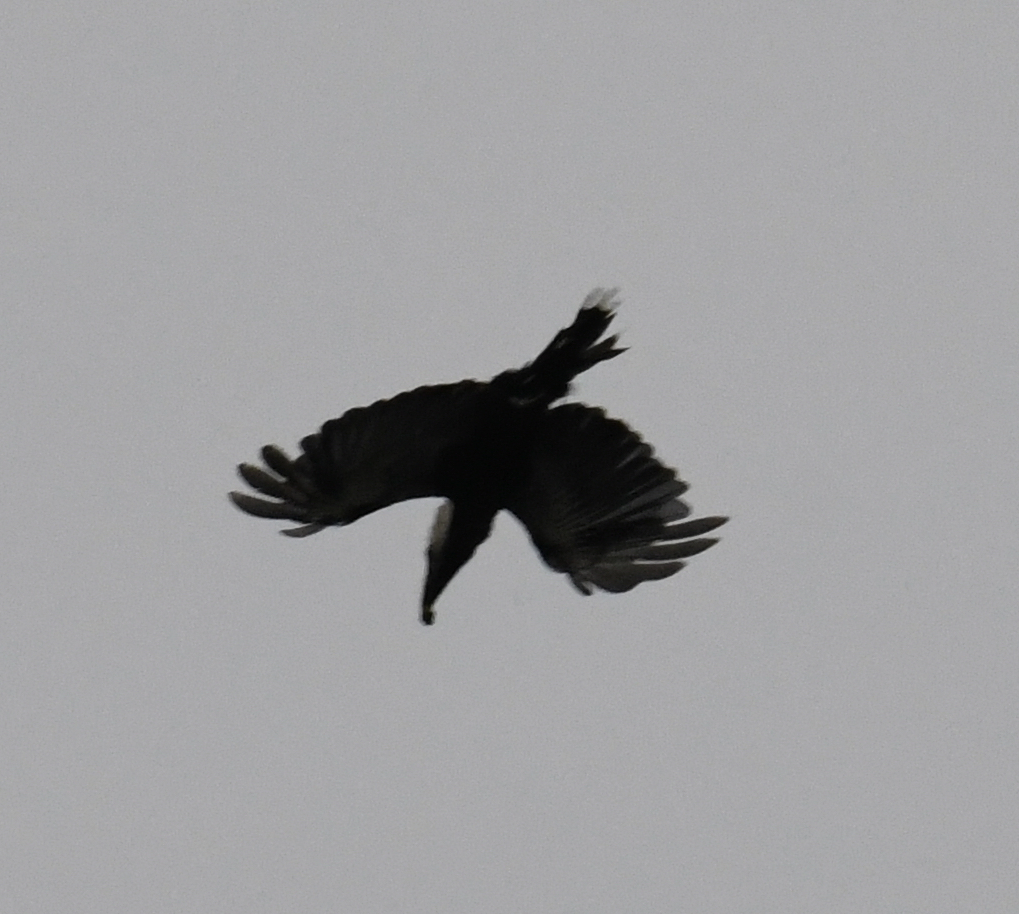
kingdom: Animalia
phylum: Chordata
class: Aves
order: Bucerotiformes
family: Bucerotidae
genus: Horizocerus
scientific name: Horizocerus albocristatus
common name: White-crested hornbill
